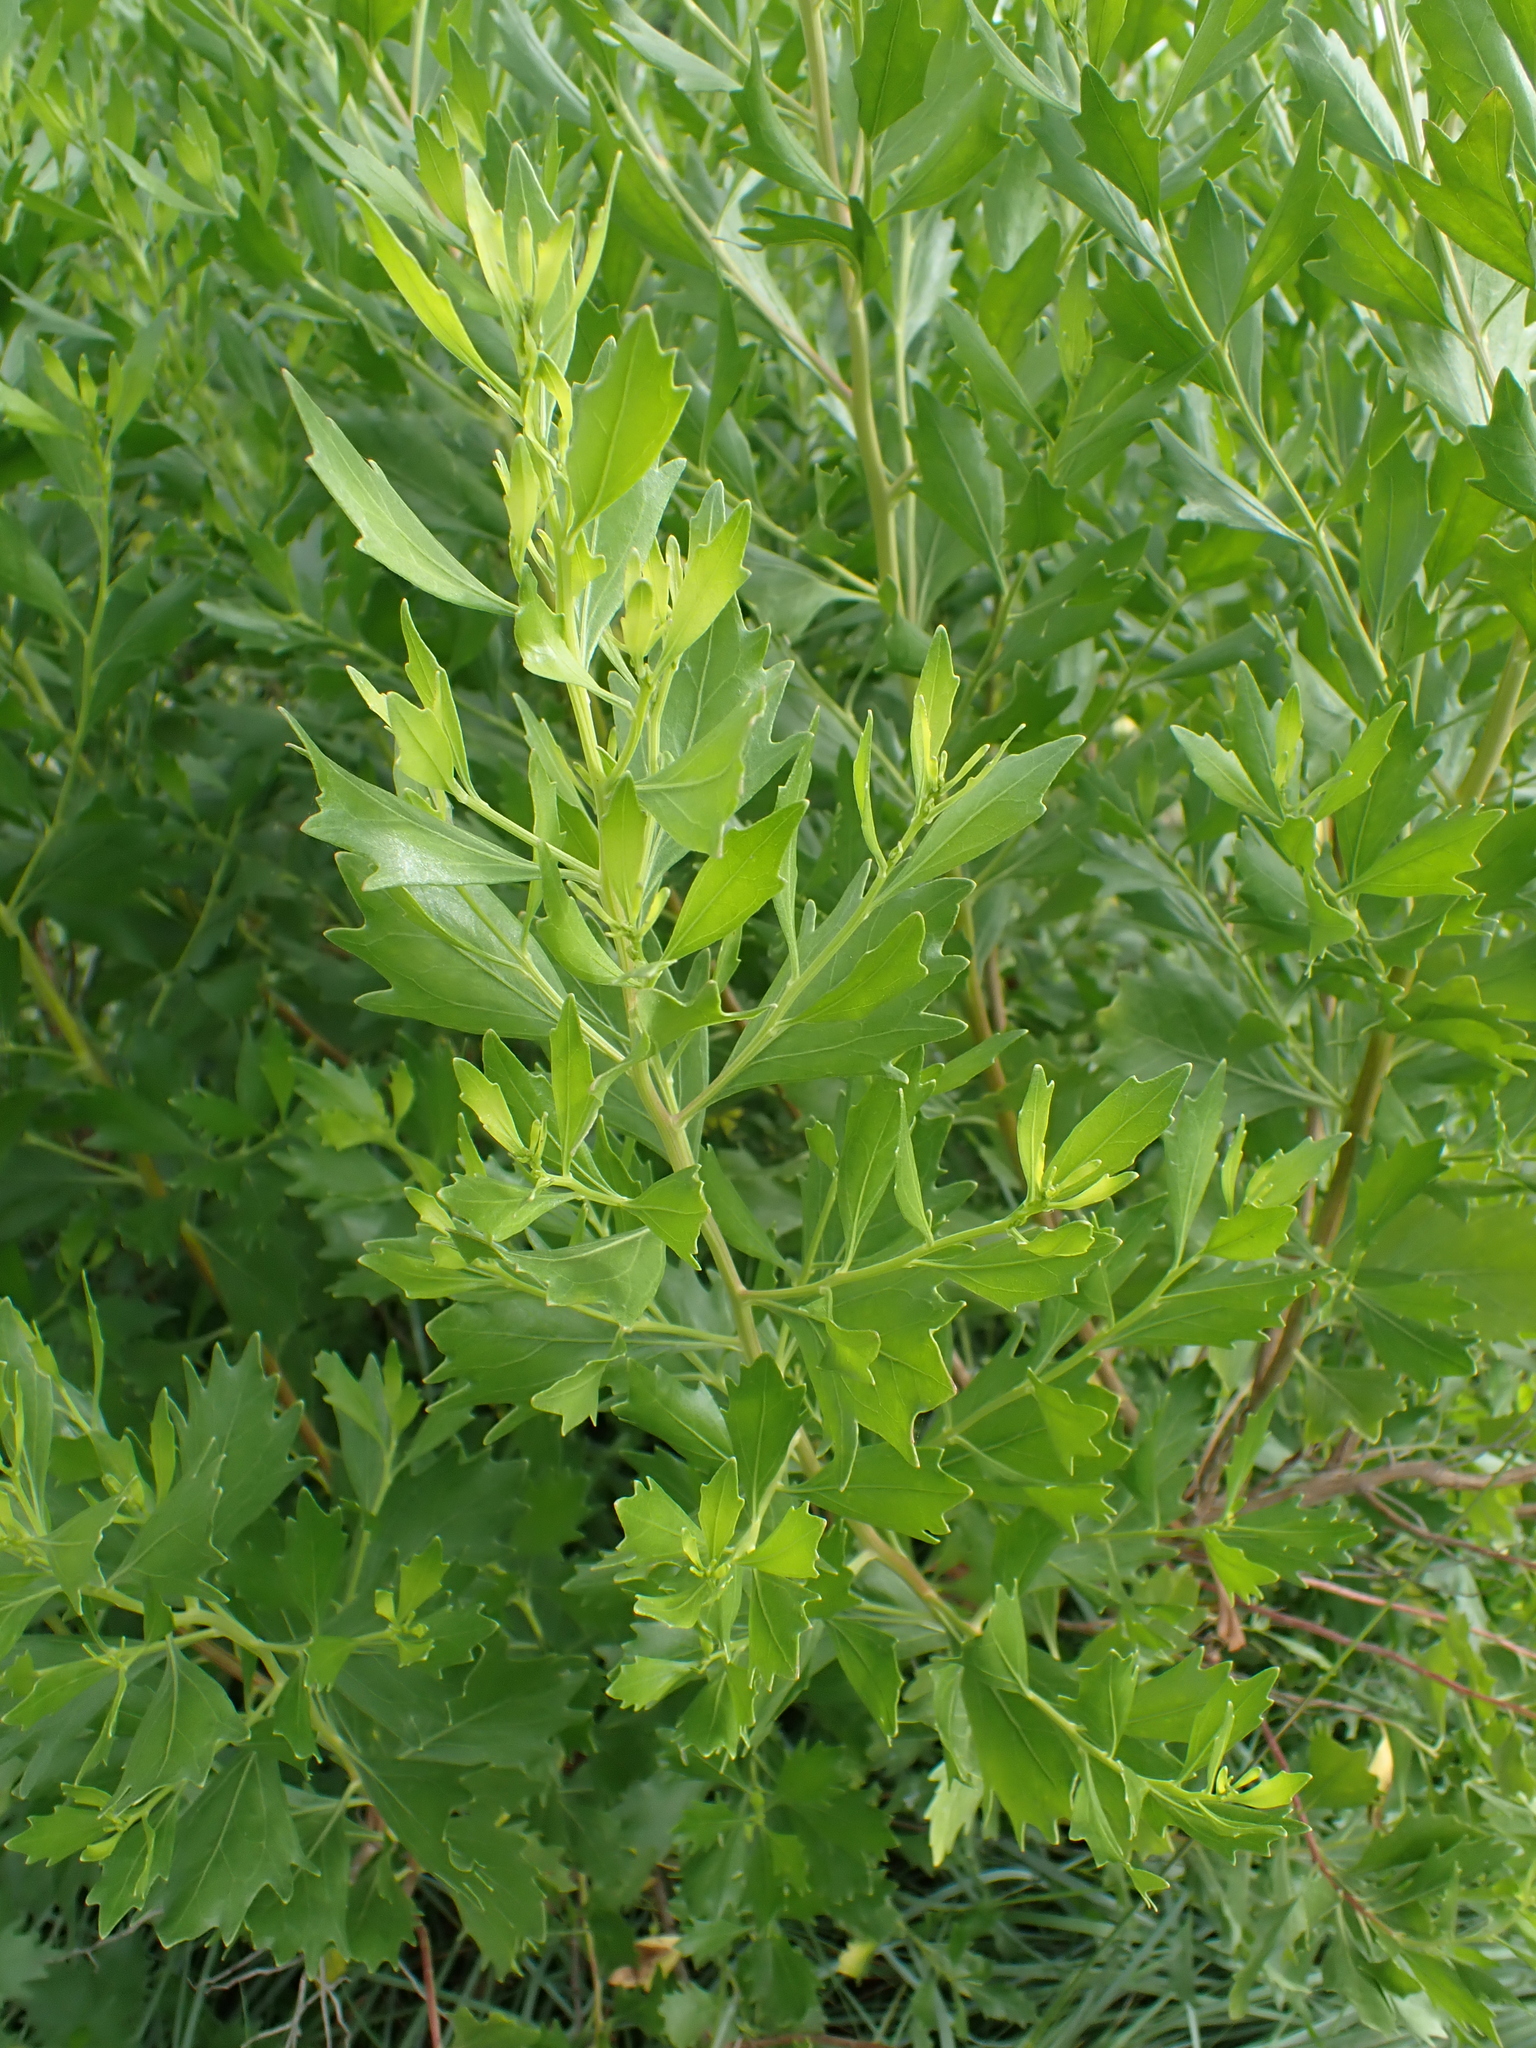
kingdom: Plantae
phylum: Tracheophyta
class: Magnoliopsida
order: Asterales
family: Asteraceae
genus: Baccharis
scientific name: Baccharis halimifolia
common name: Eastern baccharis
